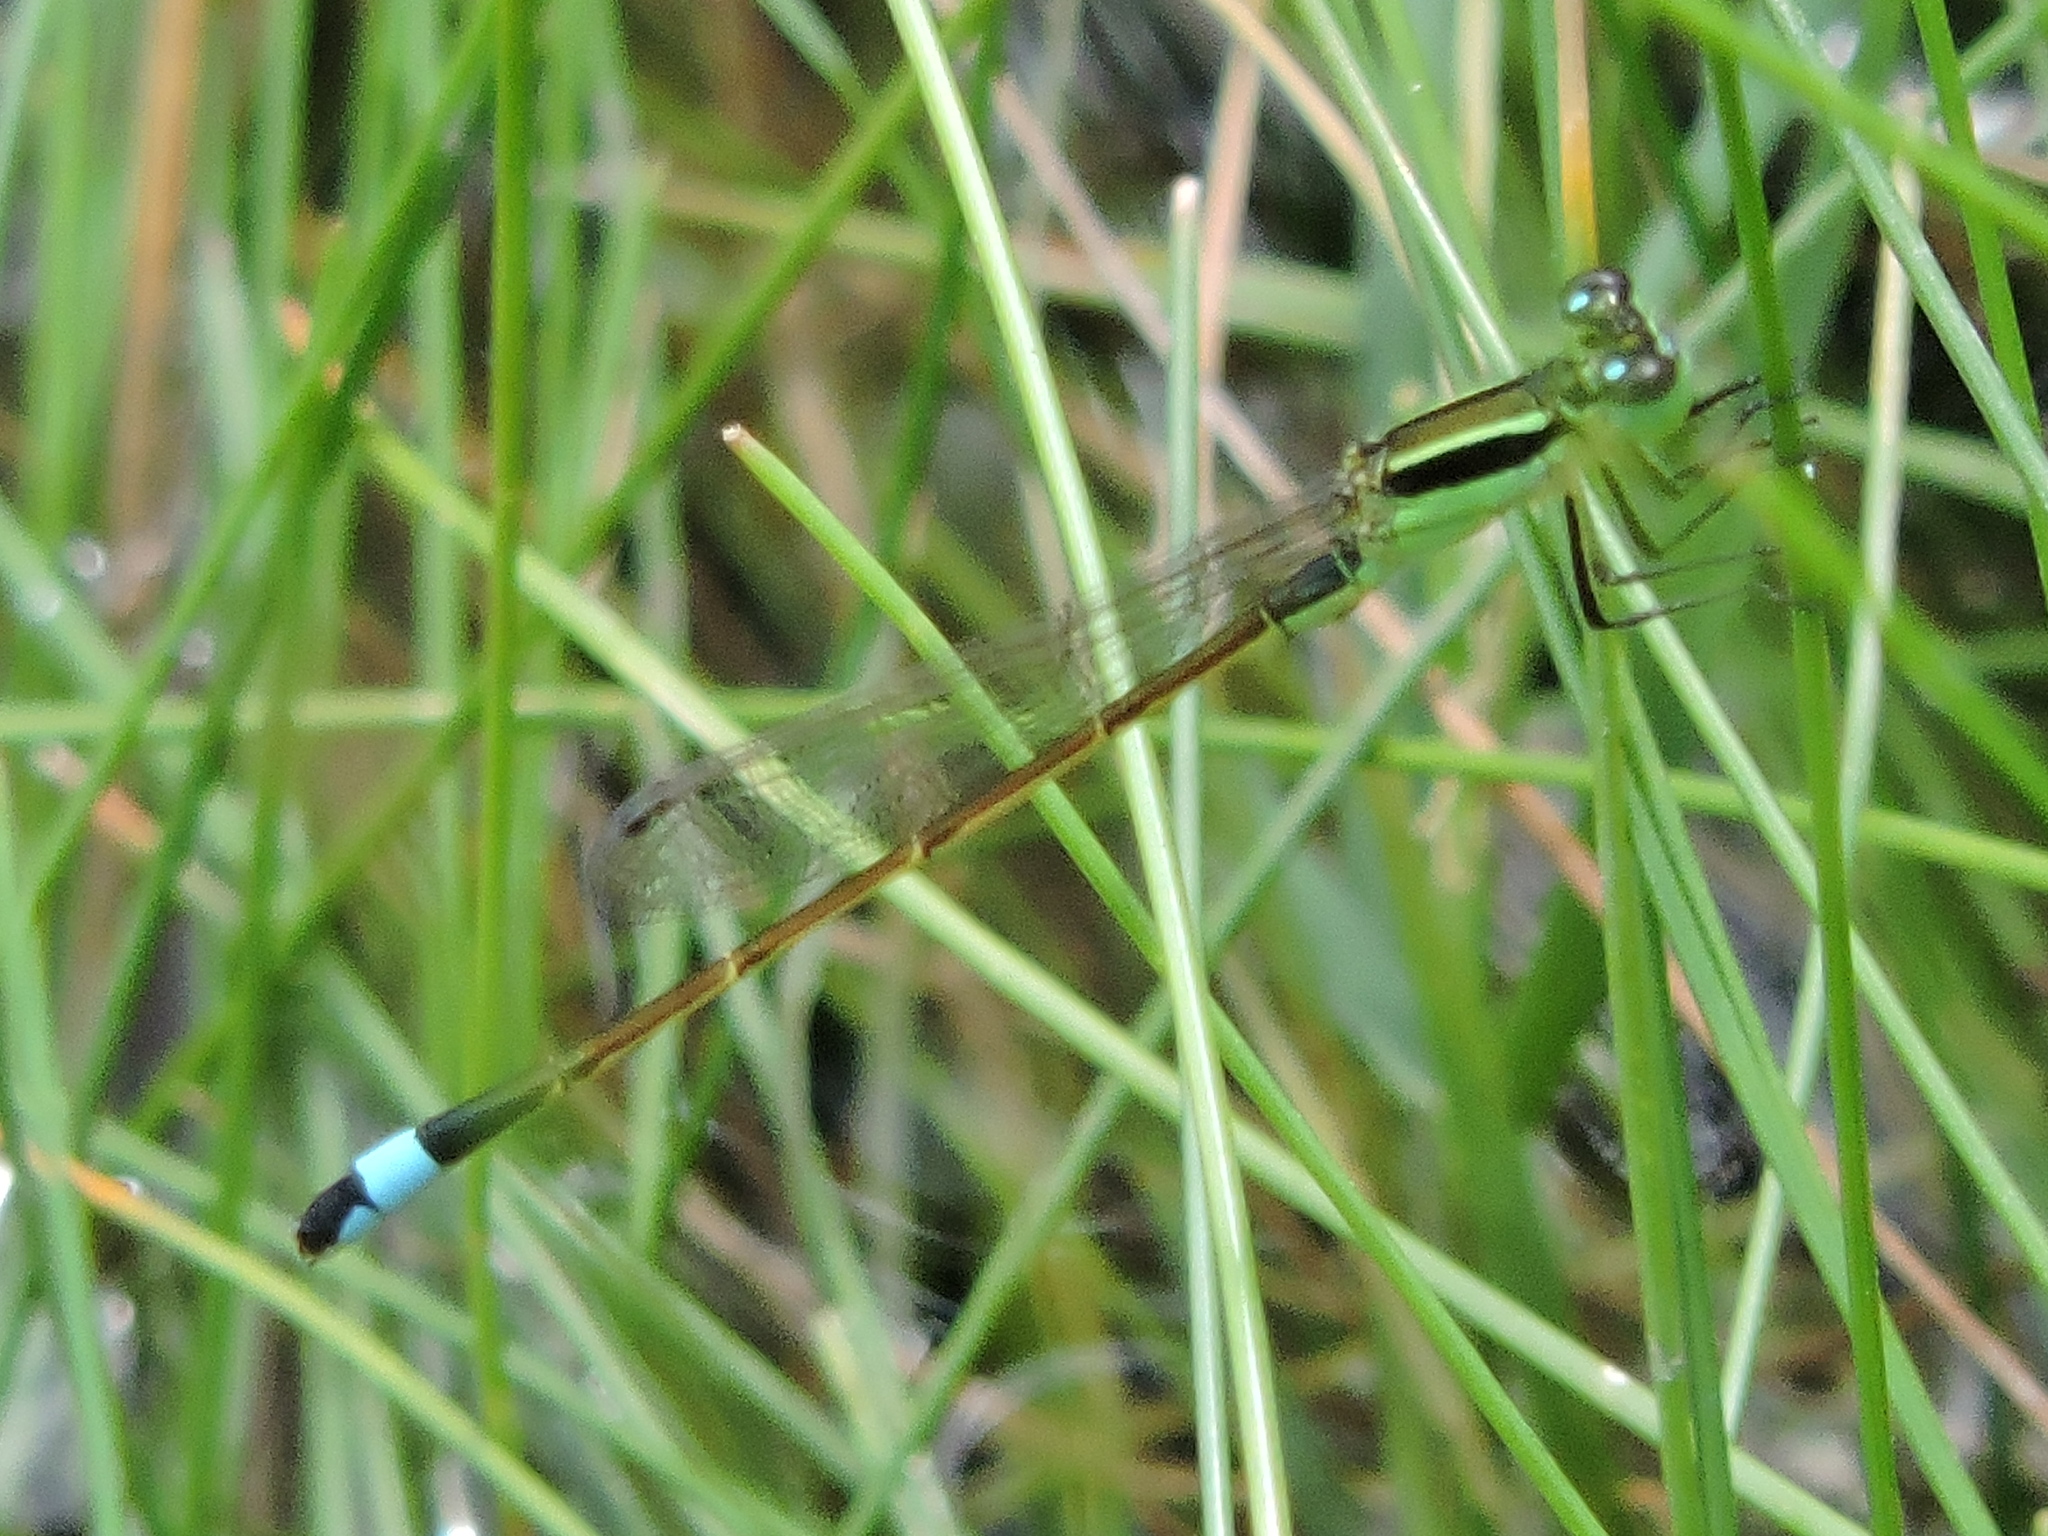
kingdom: Animalia
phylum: Arthropoda
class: Insecta
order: Odonata
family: Coenagrionidae
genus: Ischnura
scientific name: Ischnura ramburii
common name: Rambur's forktail
